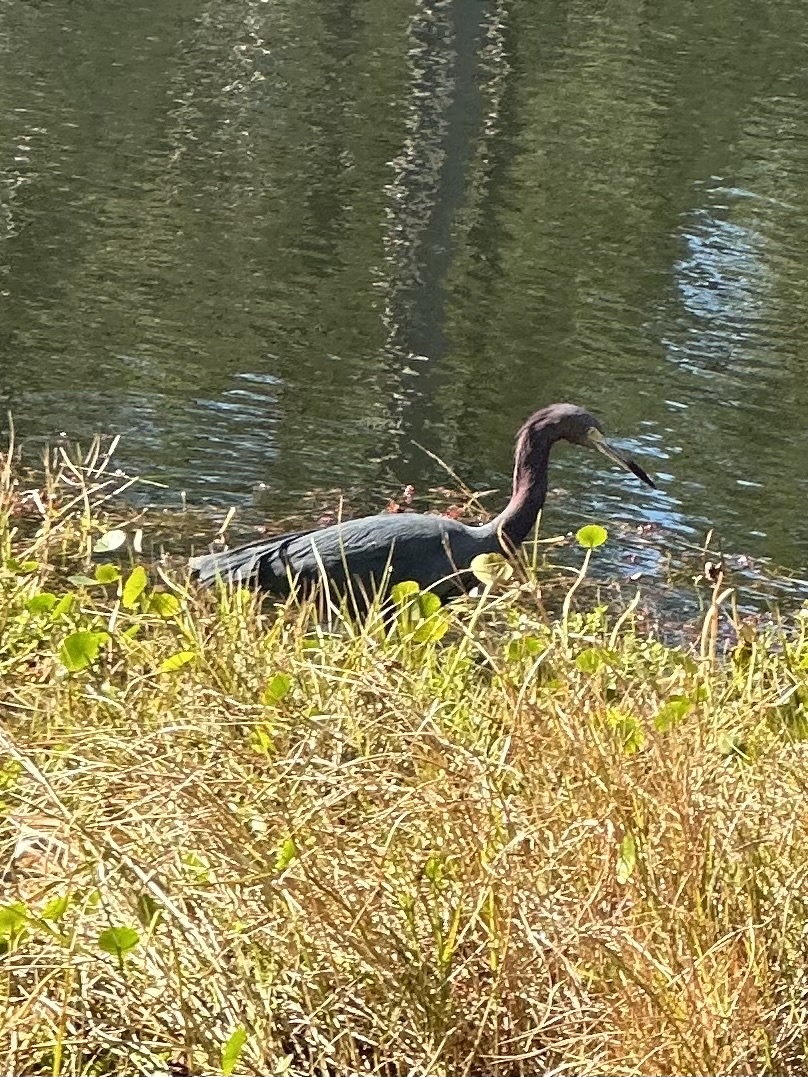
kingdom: Animalia
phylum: Chordata
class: Aves
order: Pelecaniformes
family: Ardeidae
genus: Egretta
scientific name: Egretta caerulea
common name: Little blue heron
